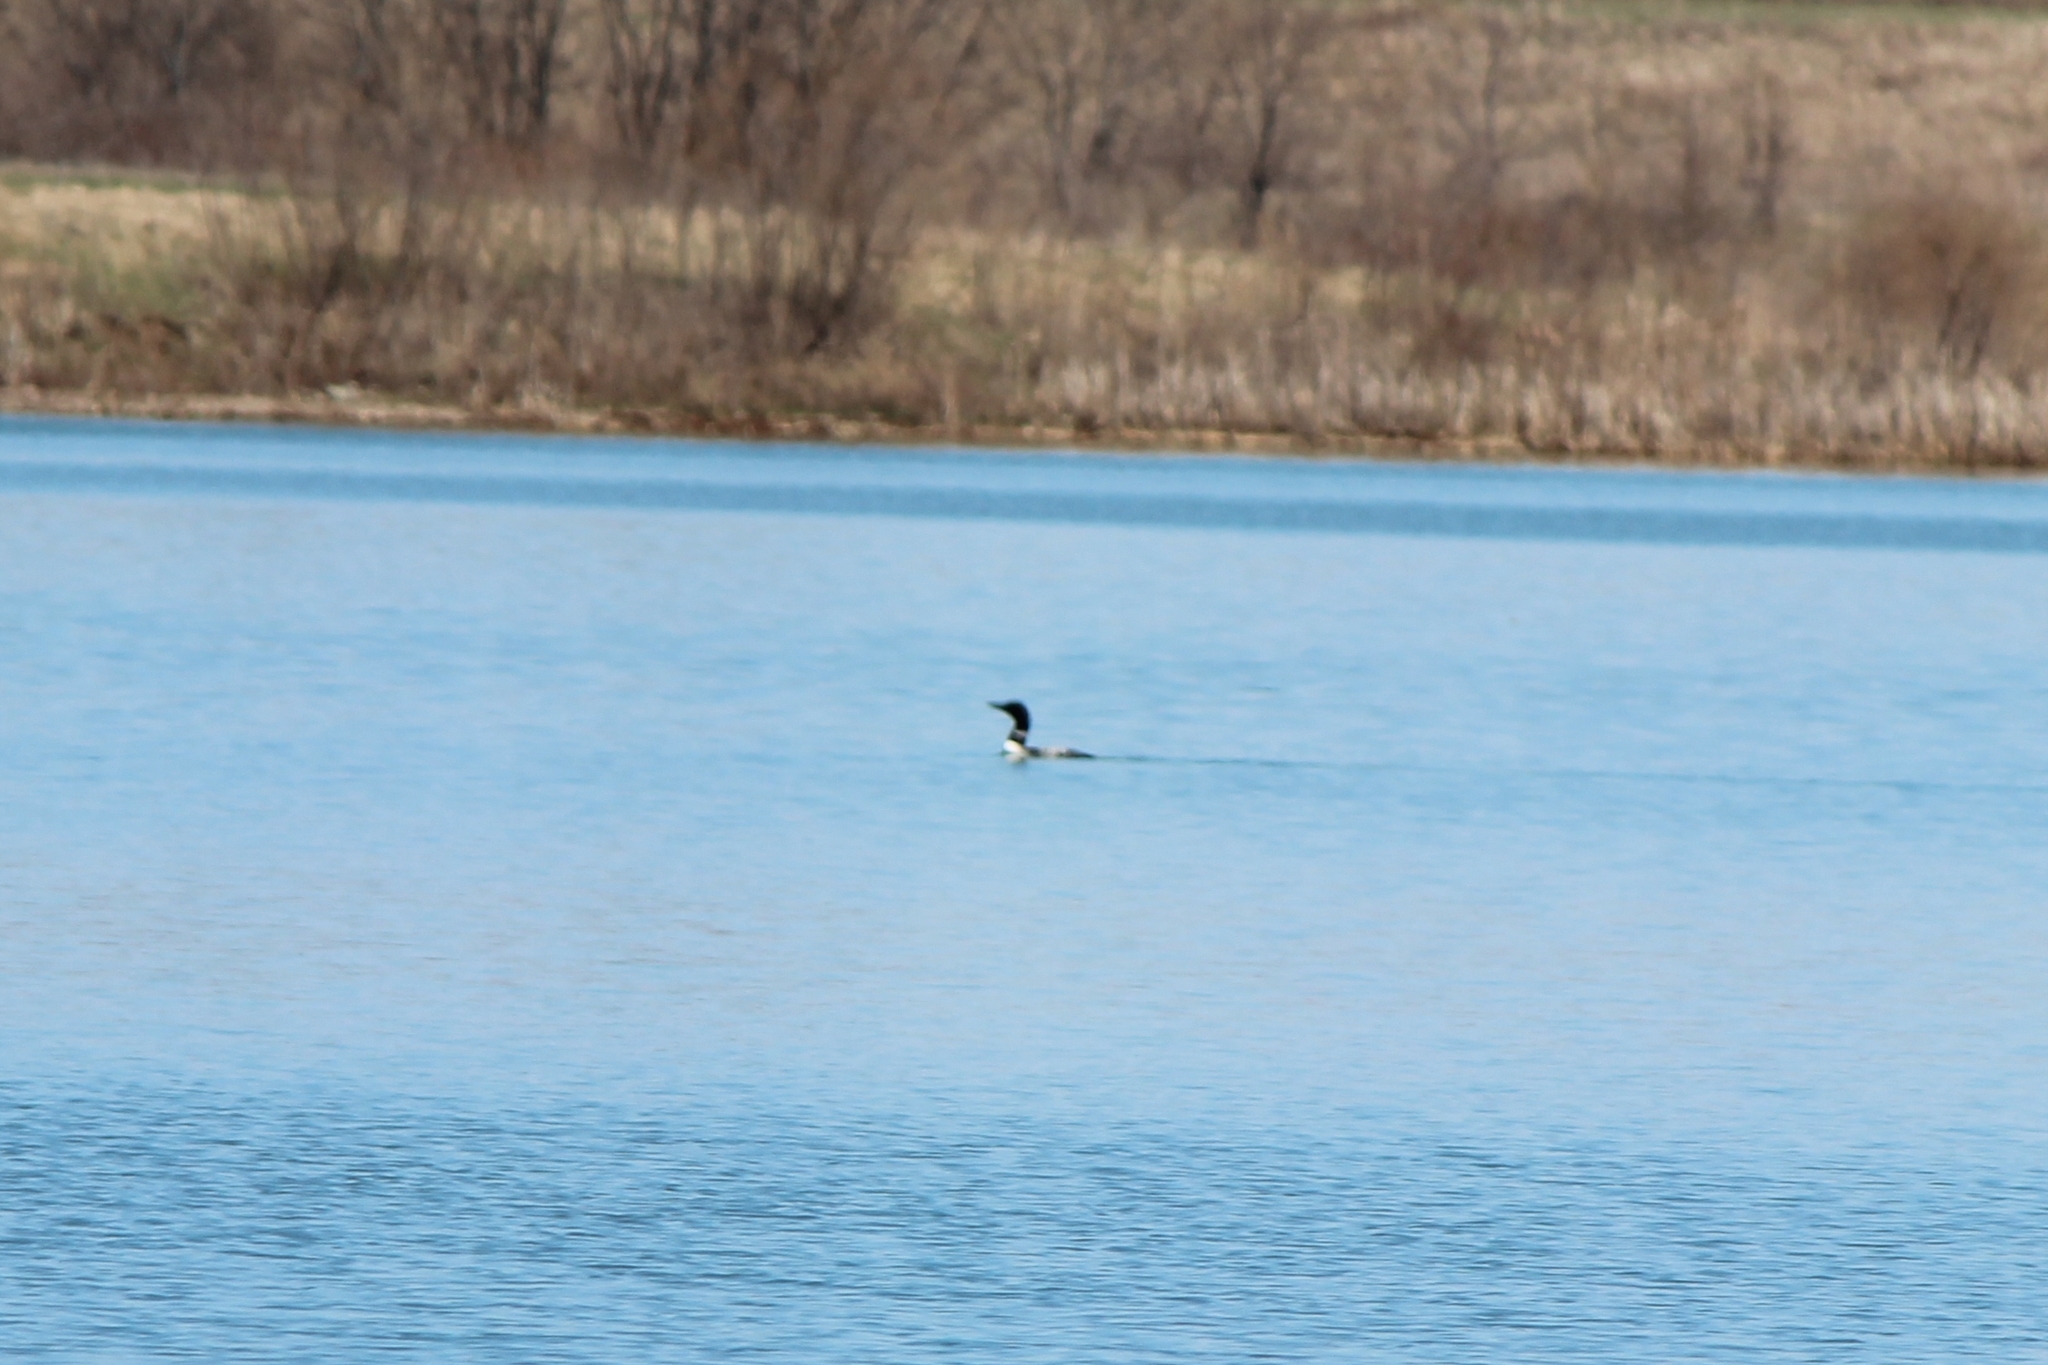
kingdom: Animalia
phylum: Chordata
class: Aves
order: Gaviiformes
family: Gaviidae
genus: Gavia
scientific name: Gavia immer
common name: Common loon
